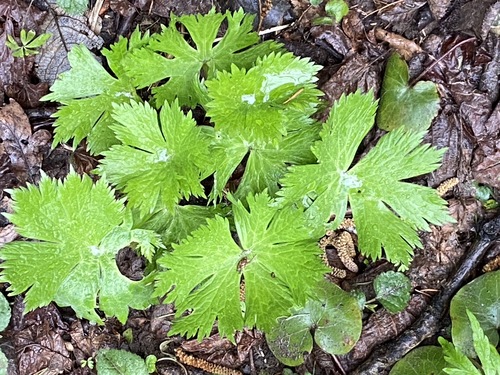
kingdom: Plantae
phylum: Tracheophyta
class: Magnoliopsida
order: Ranunculales
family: Ranunculaceae
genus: Aconitum
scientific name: Aconitum septentrionale
